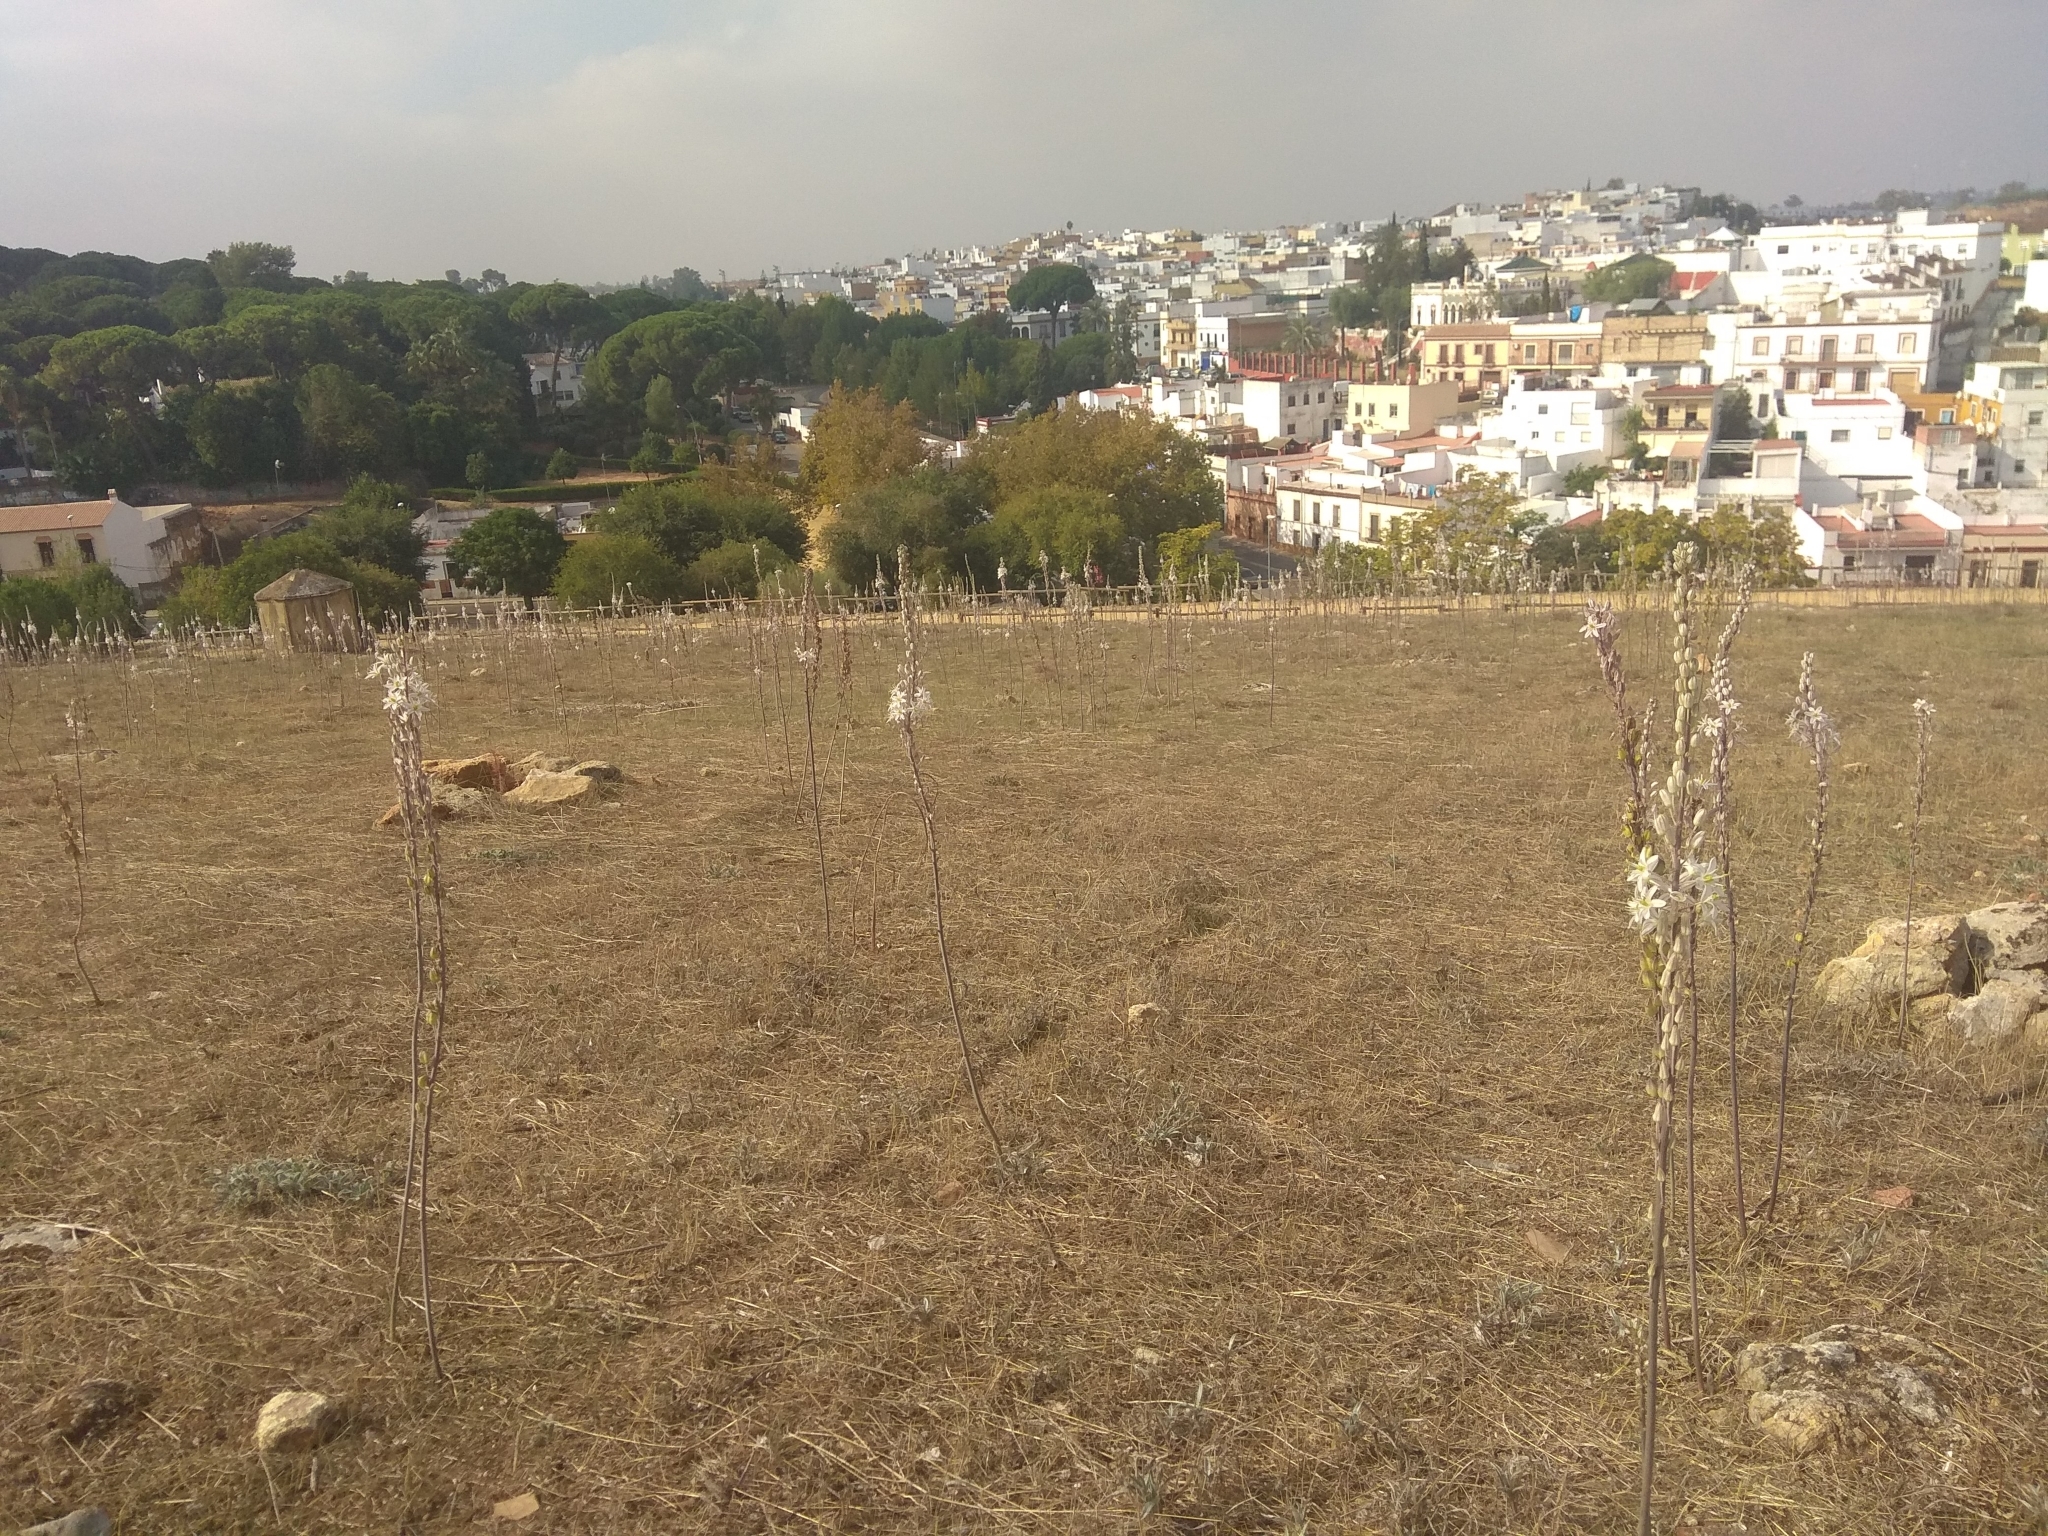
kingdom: Plantae
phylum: Tracheophyta
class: Liliopsida
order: Asparagales
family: Asparagaceae
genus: Drimia
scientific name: Drimia maritima
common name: Maritime squill
